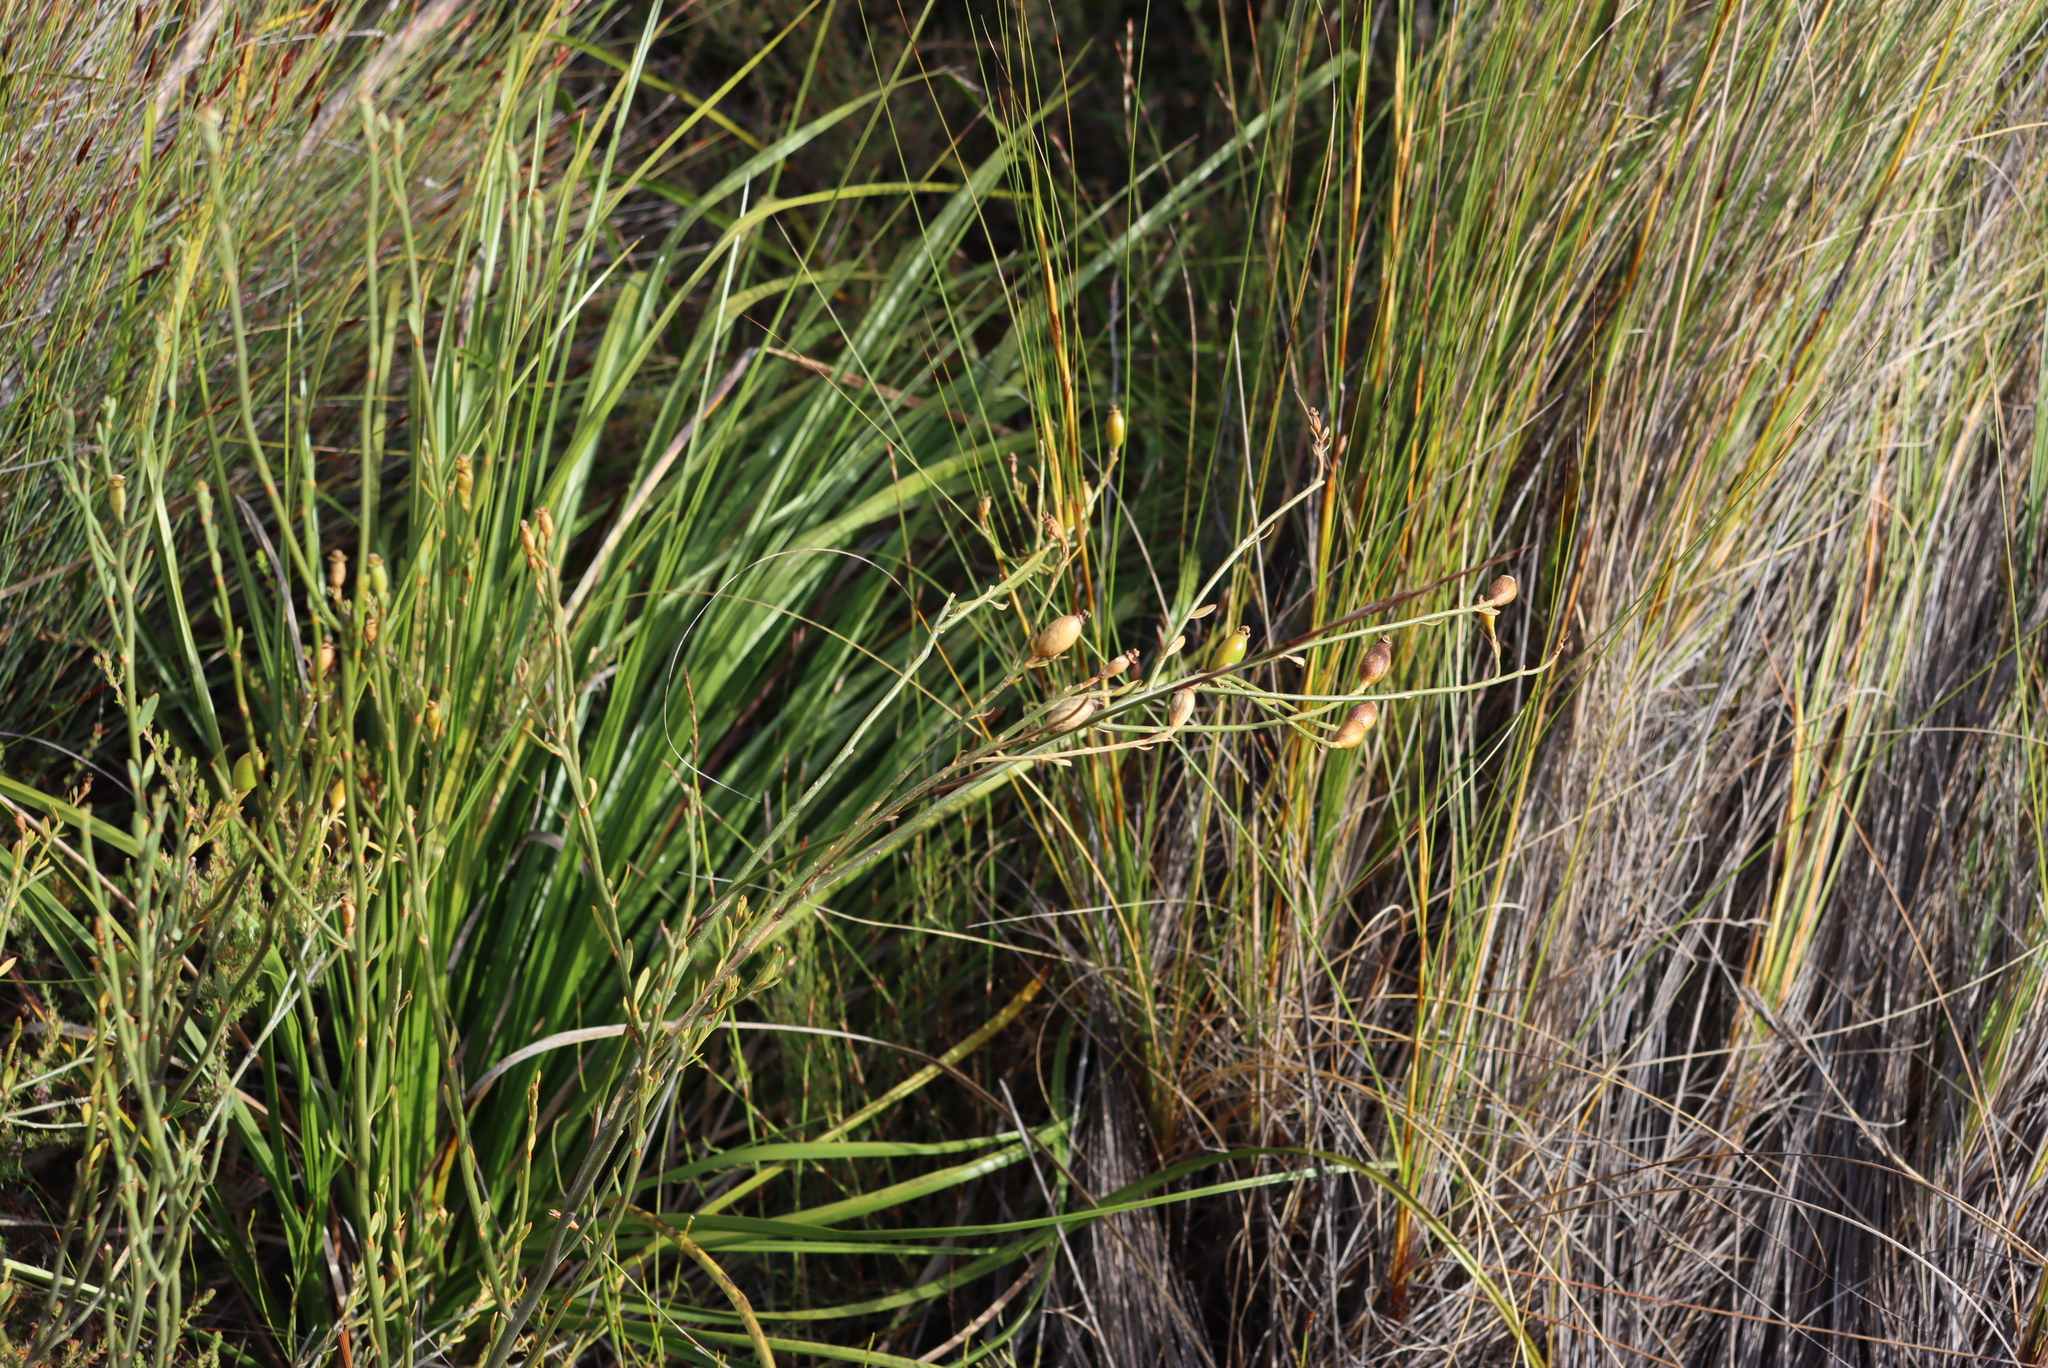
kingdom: Plantae
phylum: Tracheophyta
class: Magnoliopsida
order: Solanales
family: Montiniaceae
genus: Montinia
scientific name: Montinia caryophyllacea
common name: Wild clove-bush
